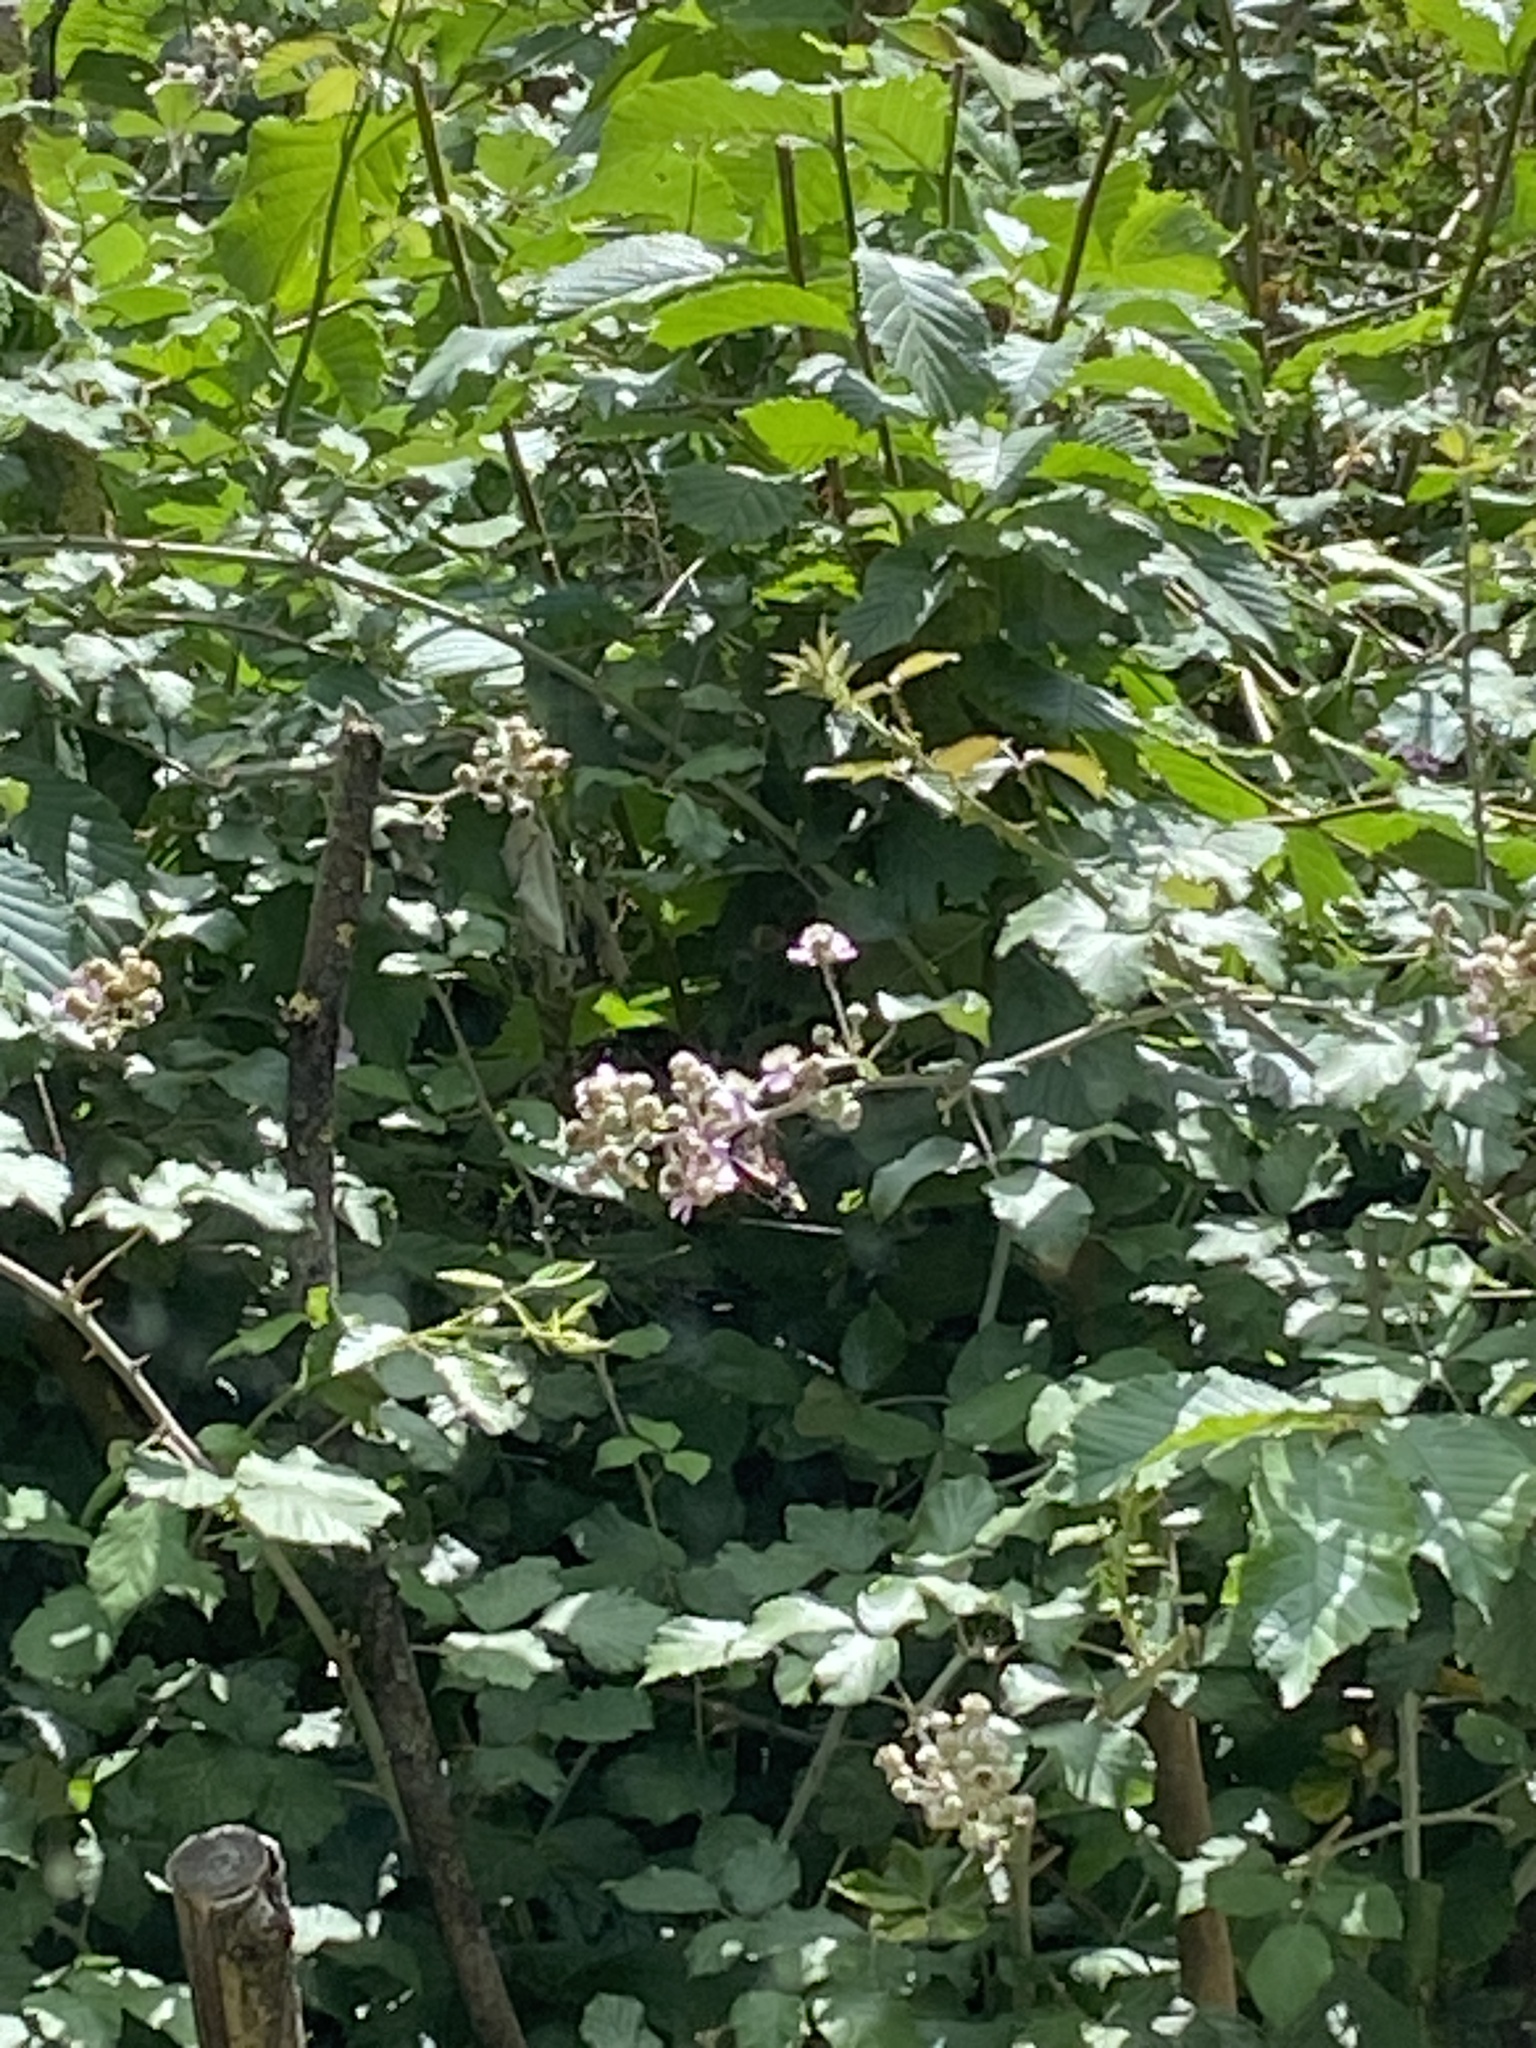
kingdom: Animalia
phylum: Arthropoda
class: Insecta
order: Lepidoptera
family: Nymphalidae
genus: Vanessa
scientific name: Vanessa atalanta
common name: Red admiral
